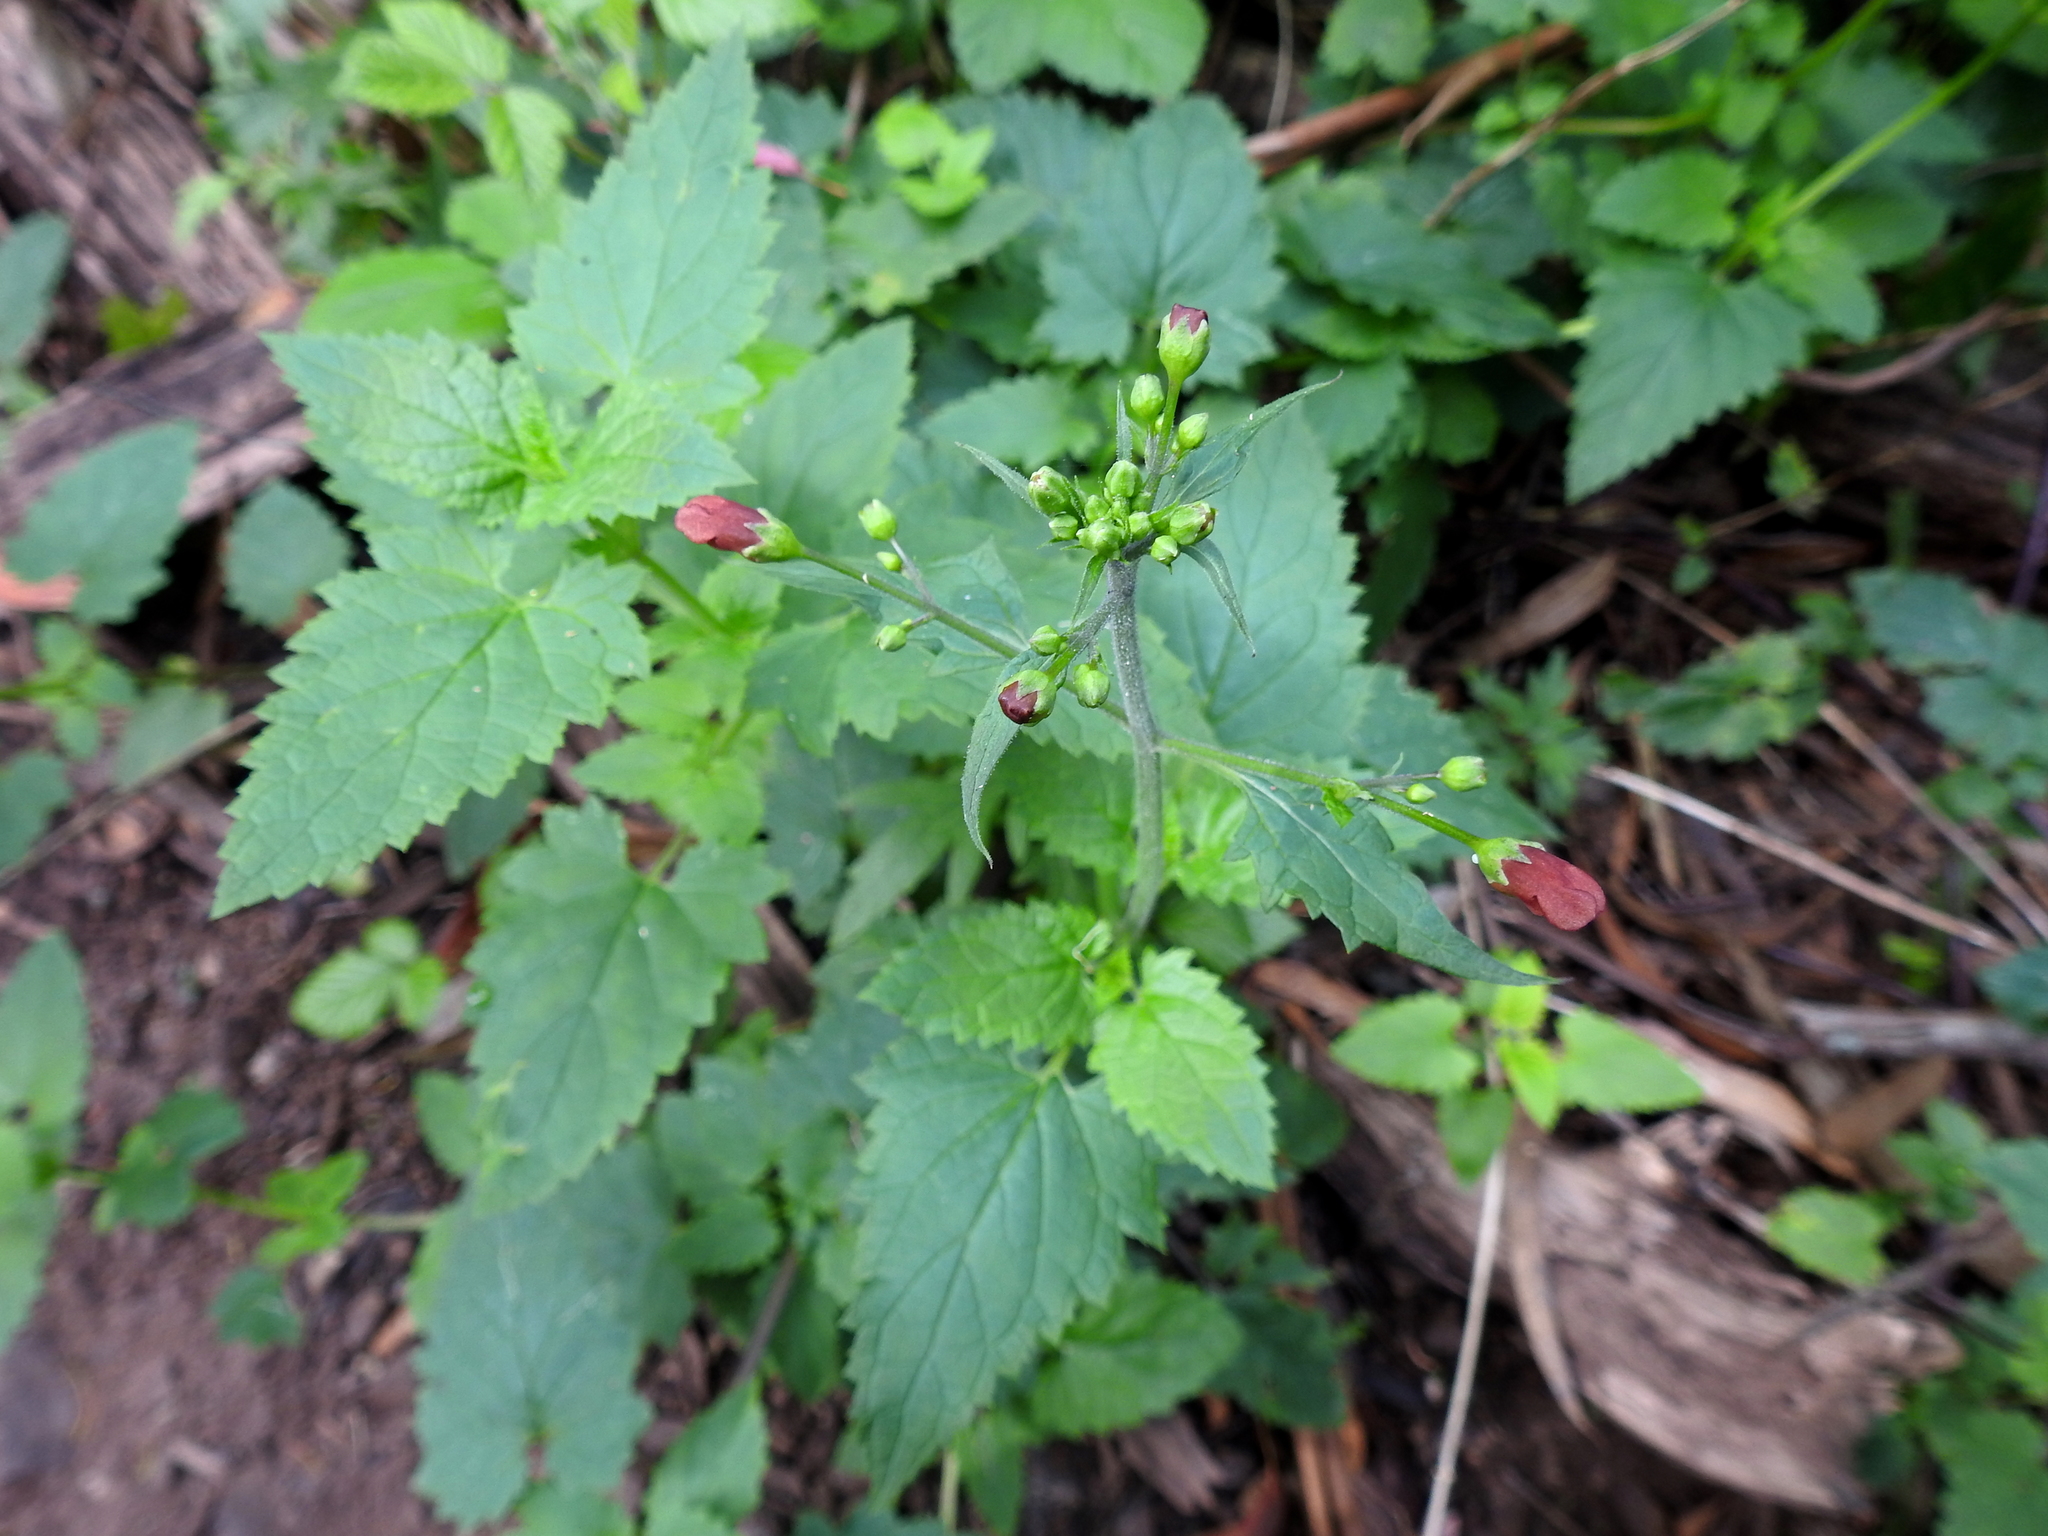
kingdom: Plantae
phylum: Tracheophyta
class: Magnoliopsida
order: Lamiales
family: Scrophulariaceae
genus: Scrophularia
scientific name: Scrophularia californica
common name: California figwort
